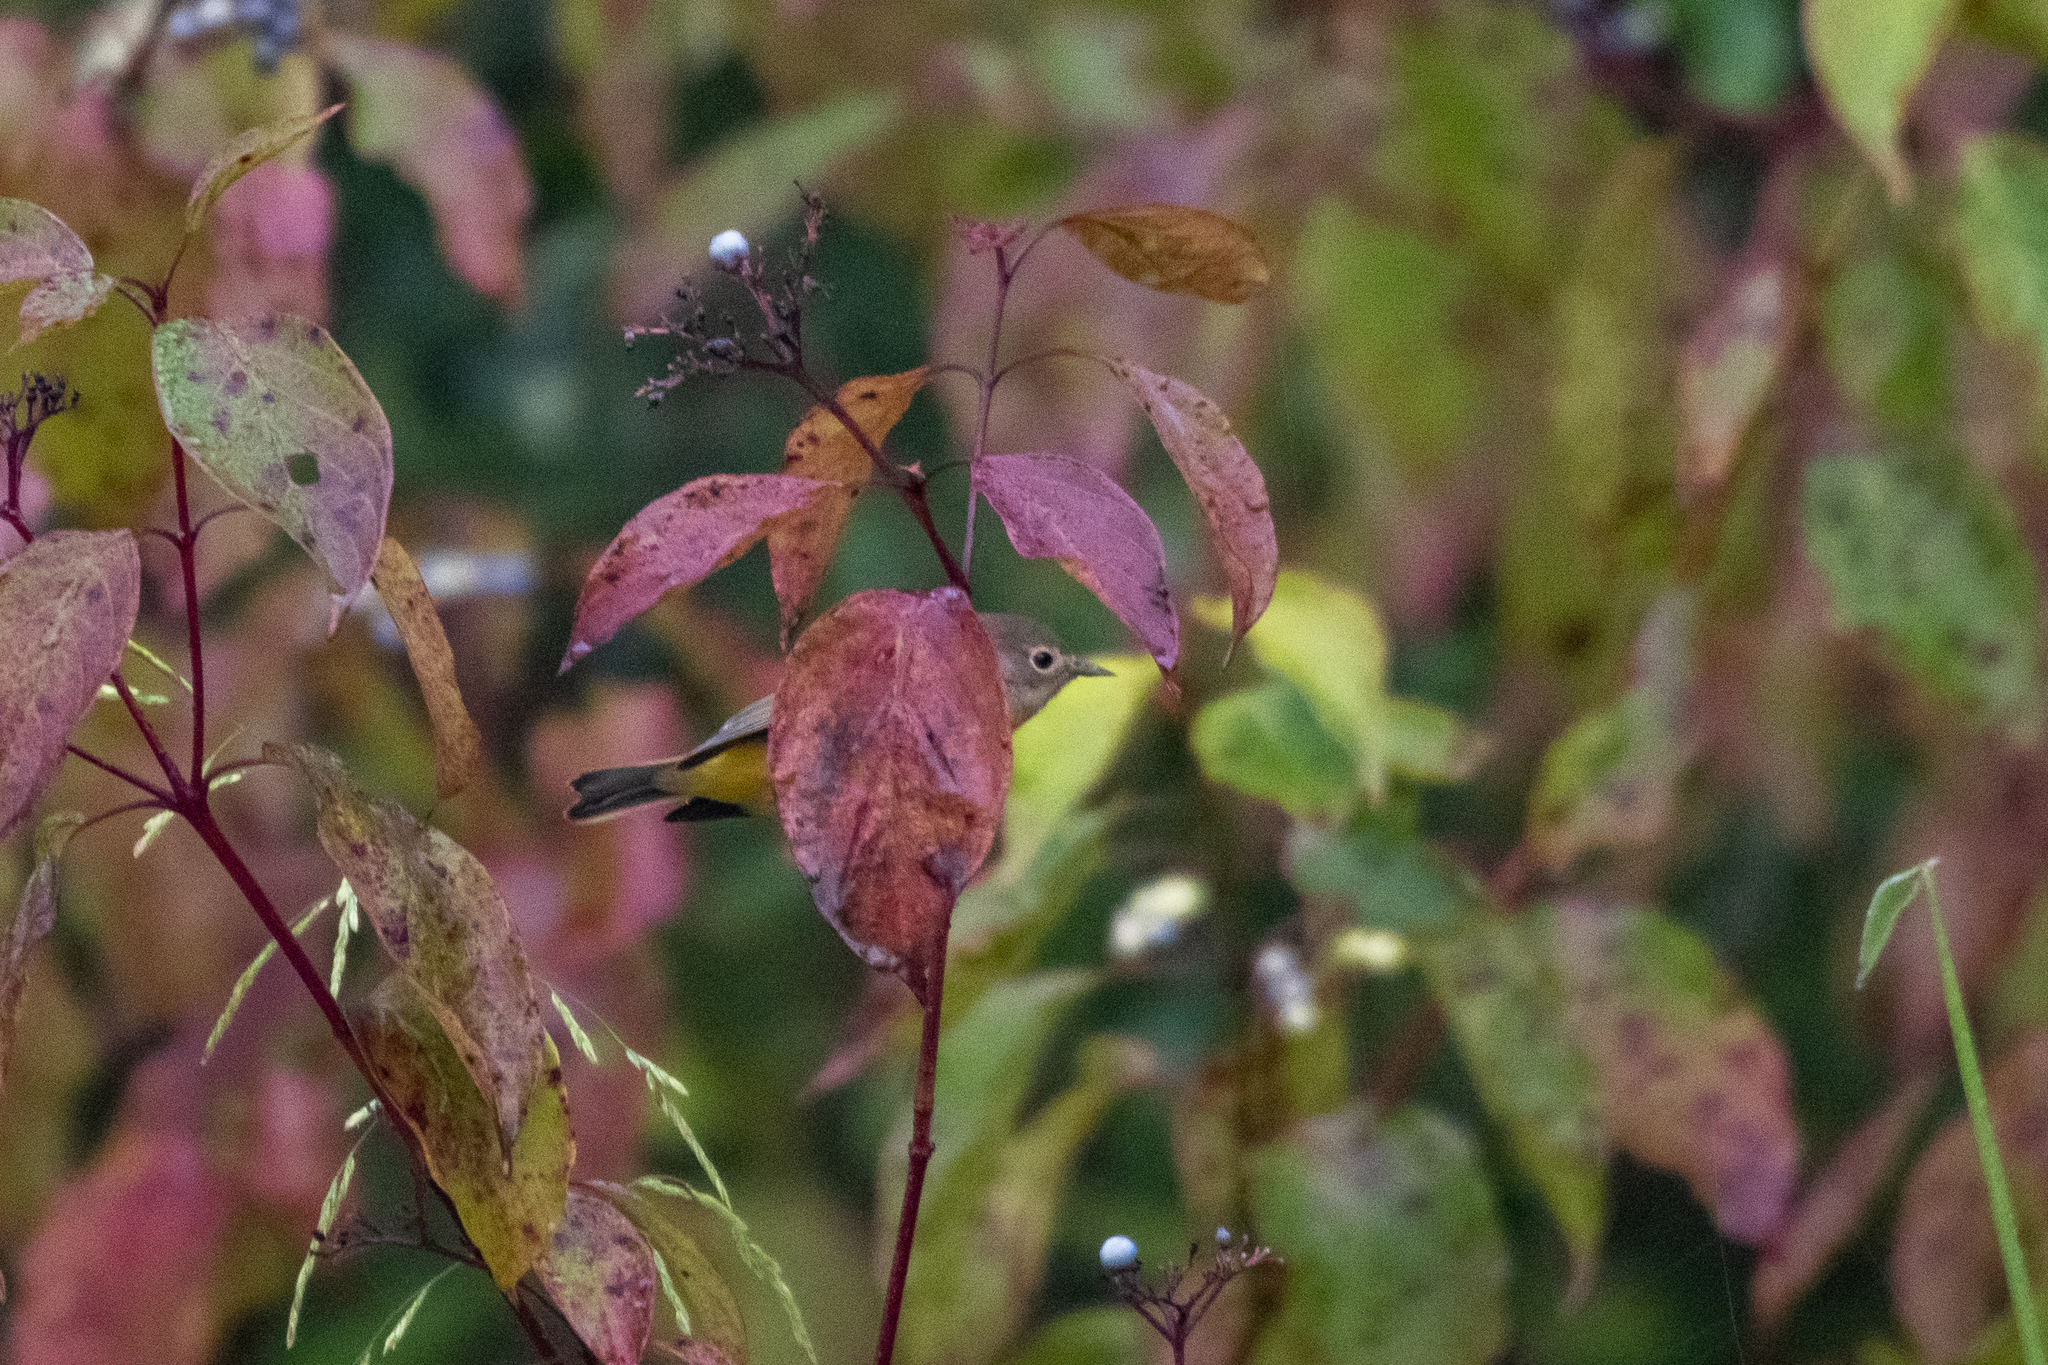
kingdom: Animalia
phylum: Chordata
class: Aves
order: Passeriformes
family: Parulidae
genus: Leiothlypis
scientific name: Leiothlypis ruficapilla
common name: Nashville warbler
